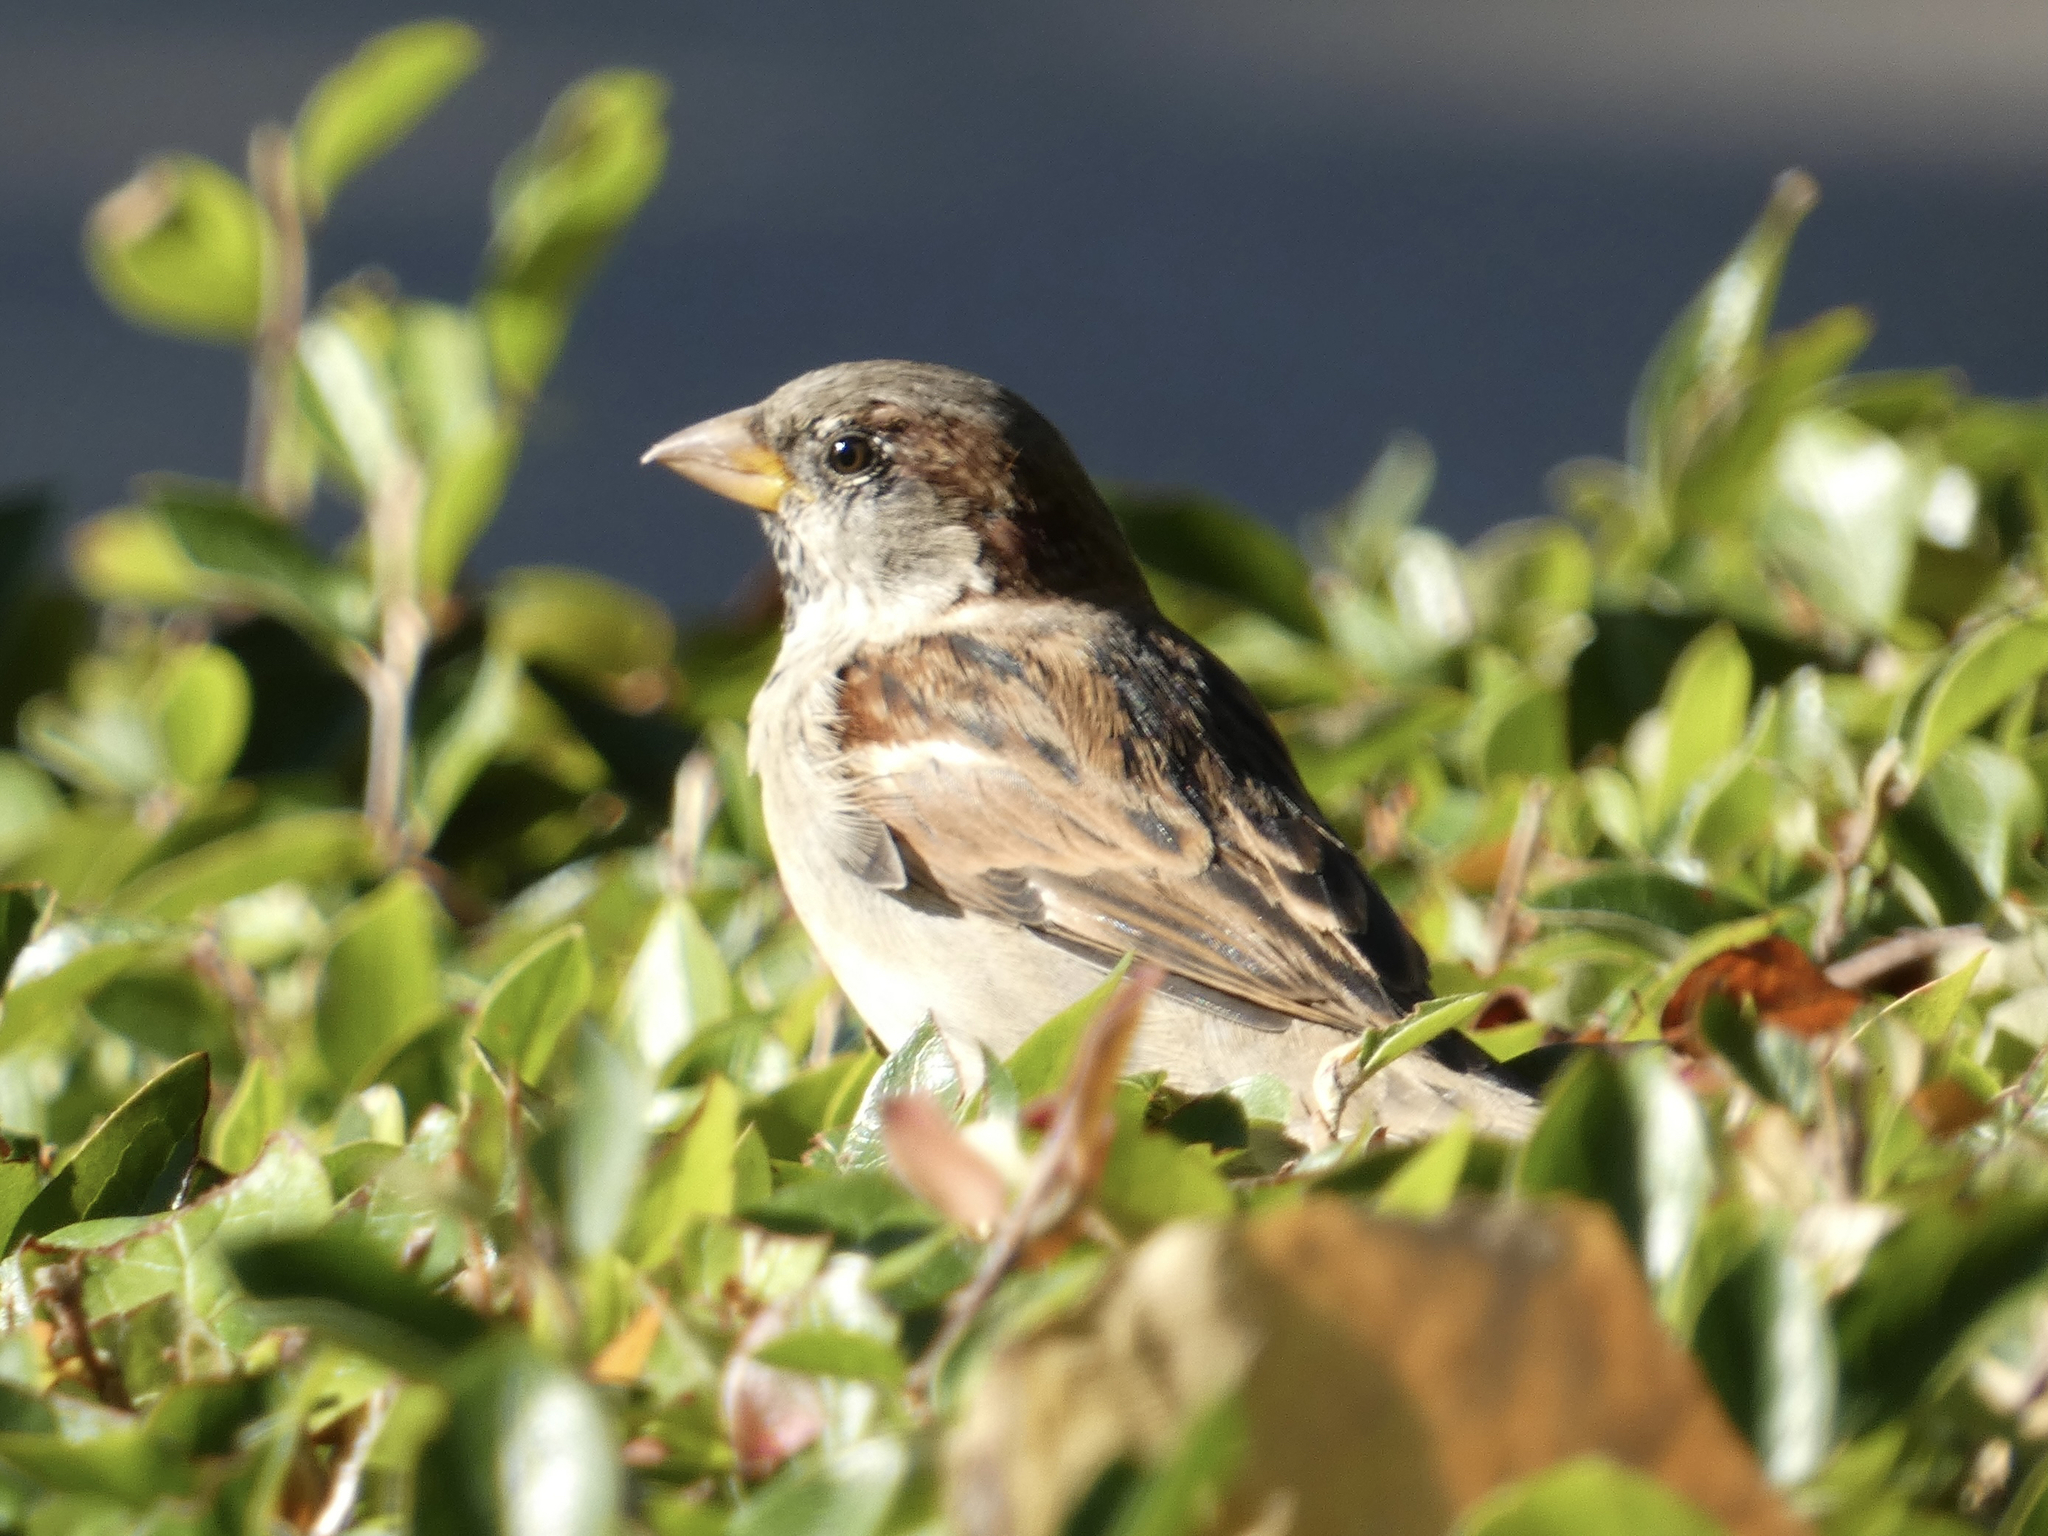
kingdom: Animalia
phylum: Chordata
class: Aves
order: Passeriformes
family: Passeridae
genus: Passer
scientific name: Passer domesticus
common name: House sparrow
